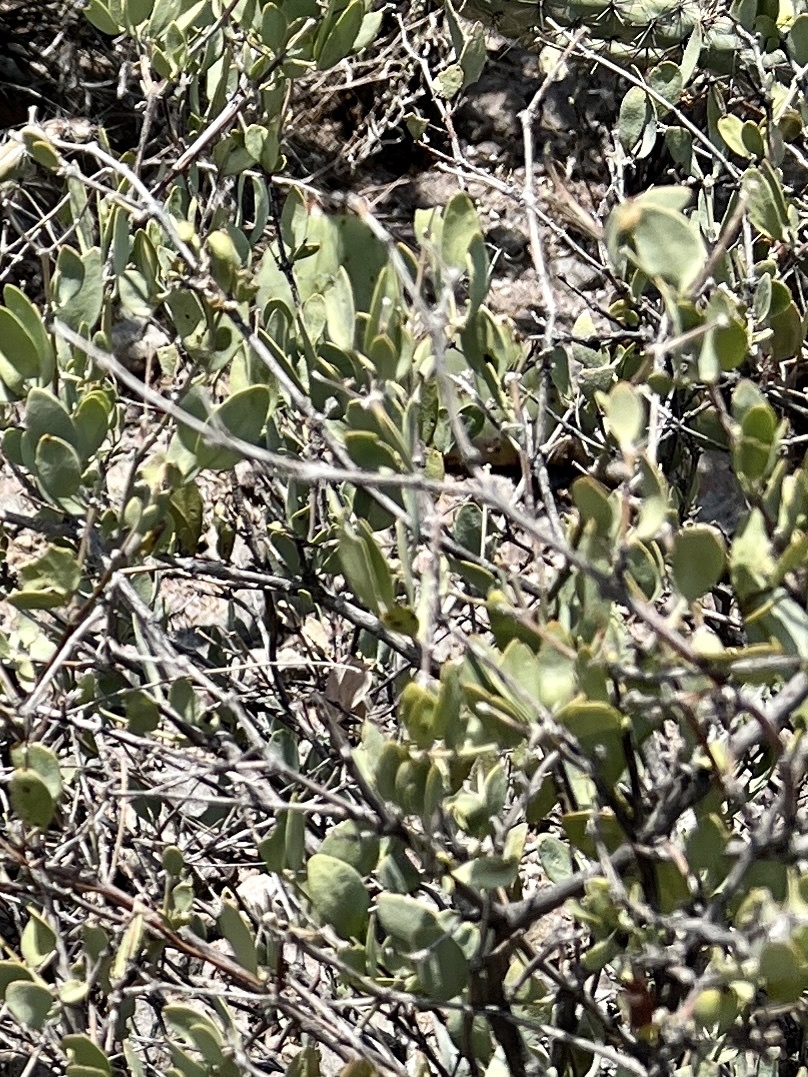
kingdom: Plantae
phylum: Tracheophyta
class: Magnoliopsida
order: Caryophyllales
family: Simmondsiaceae
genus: Simmondsia
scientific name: Simmondsia chinensis
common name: Jojoba
